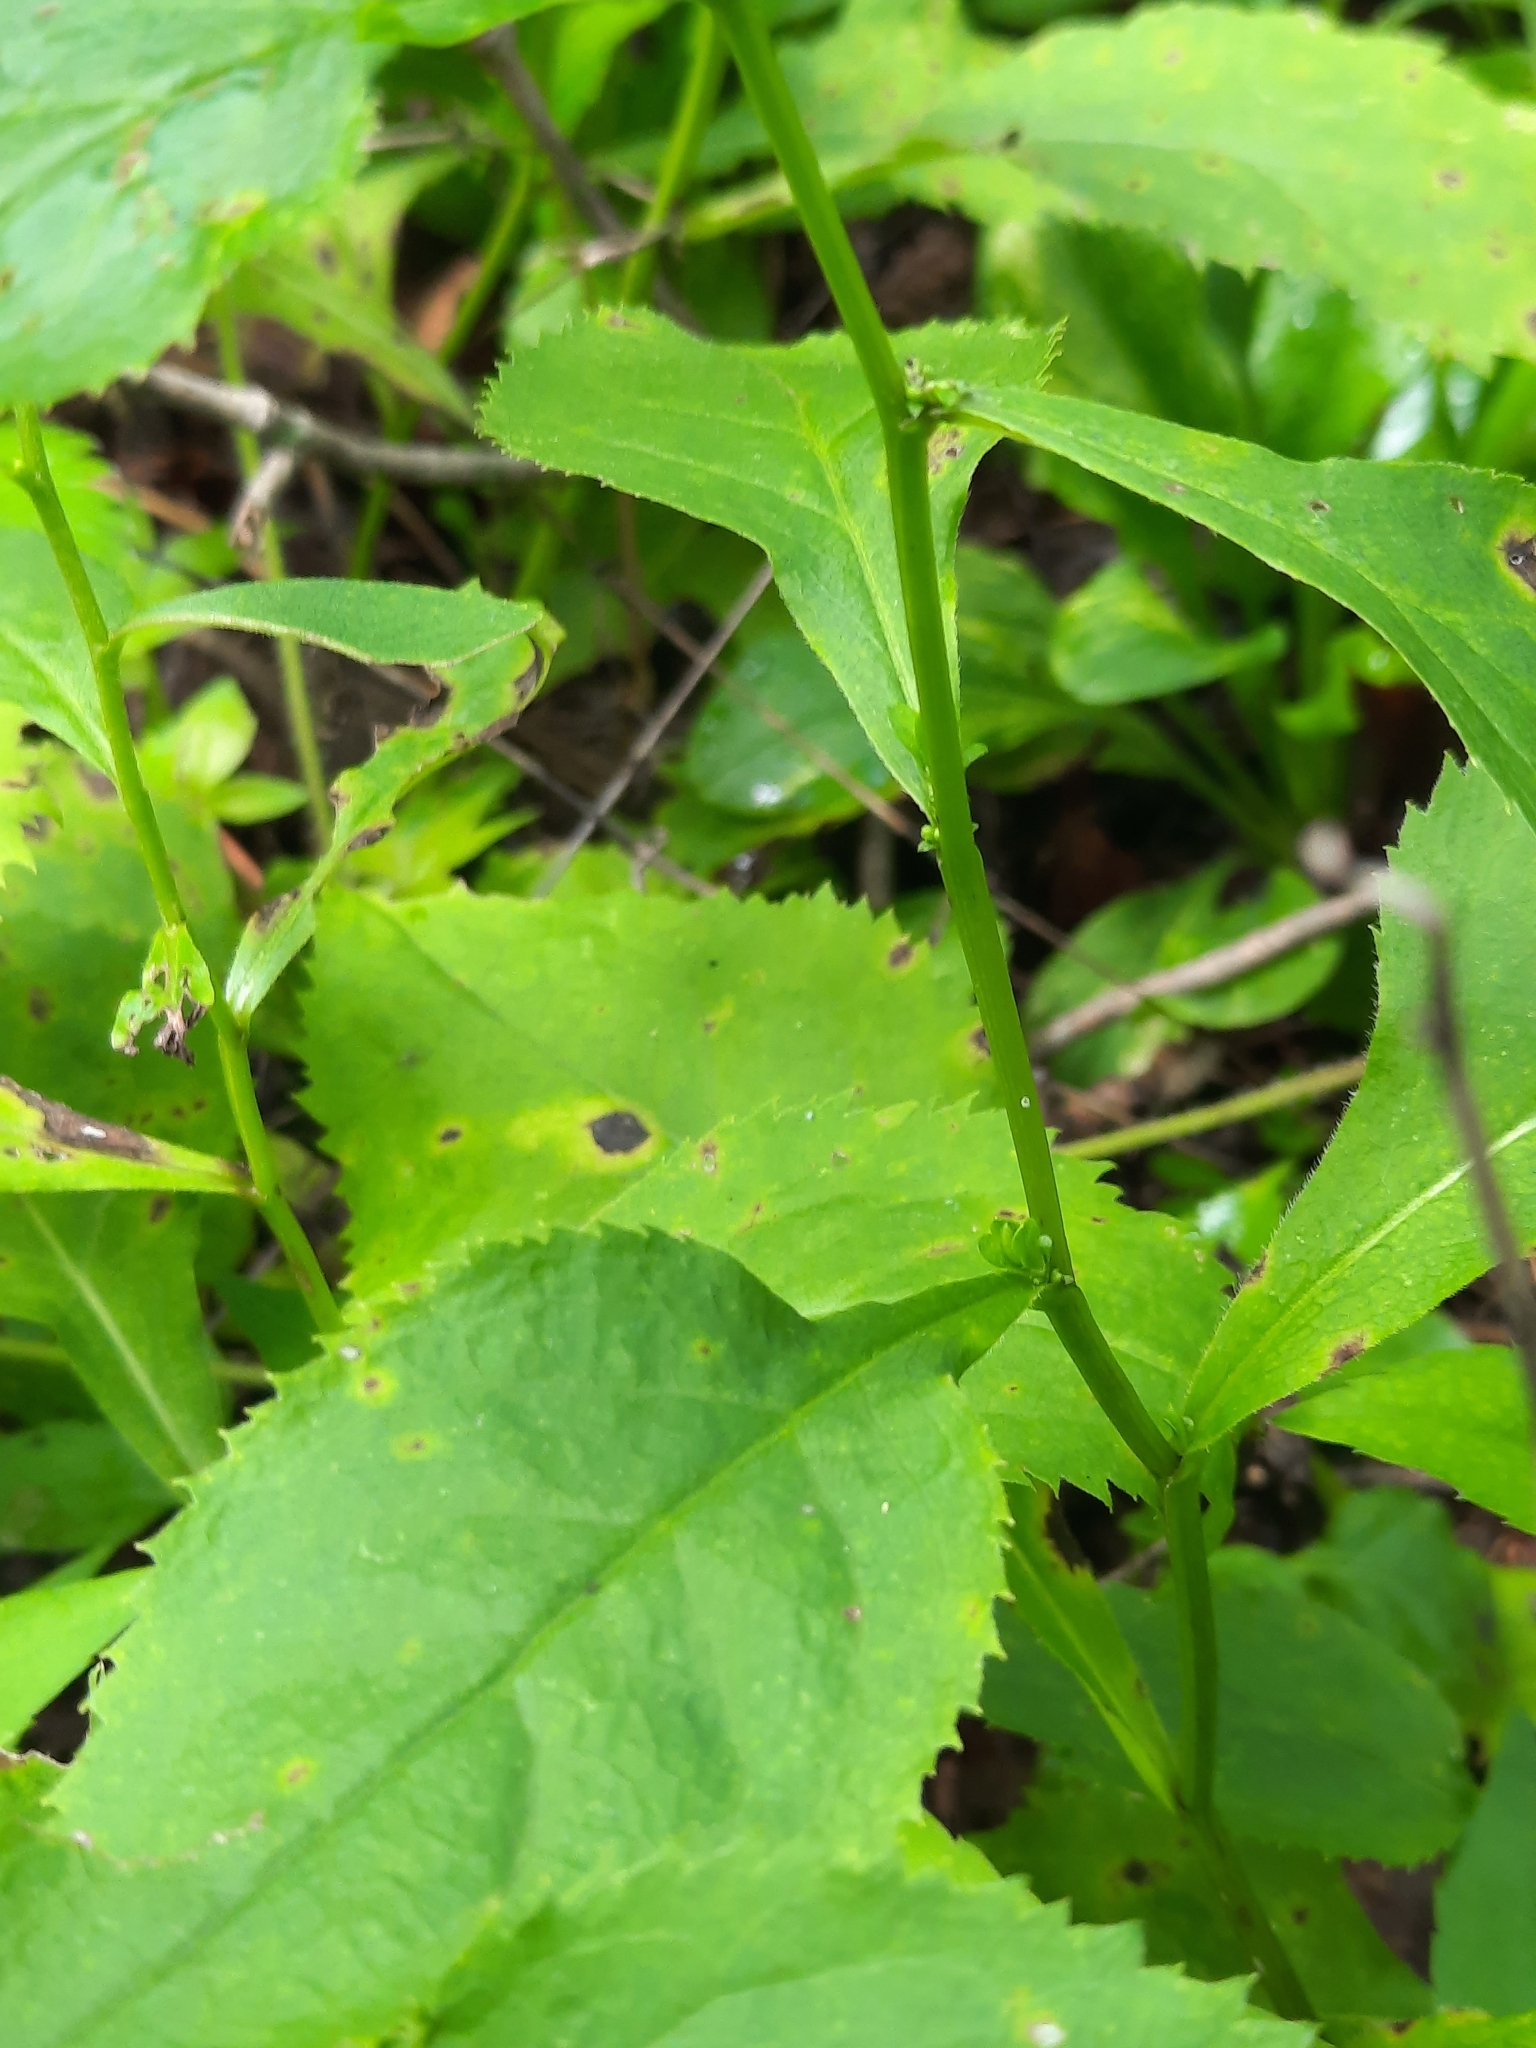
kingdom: Plantae
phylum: Tracheophyta
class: Magnoliopsida
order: Asterales
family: Asteraceae
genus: Solidago
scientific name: Solidago flexicaulis
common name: Zig-zag goldenrod
